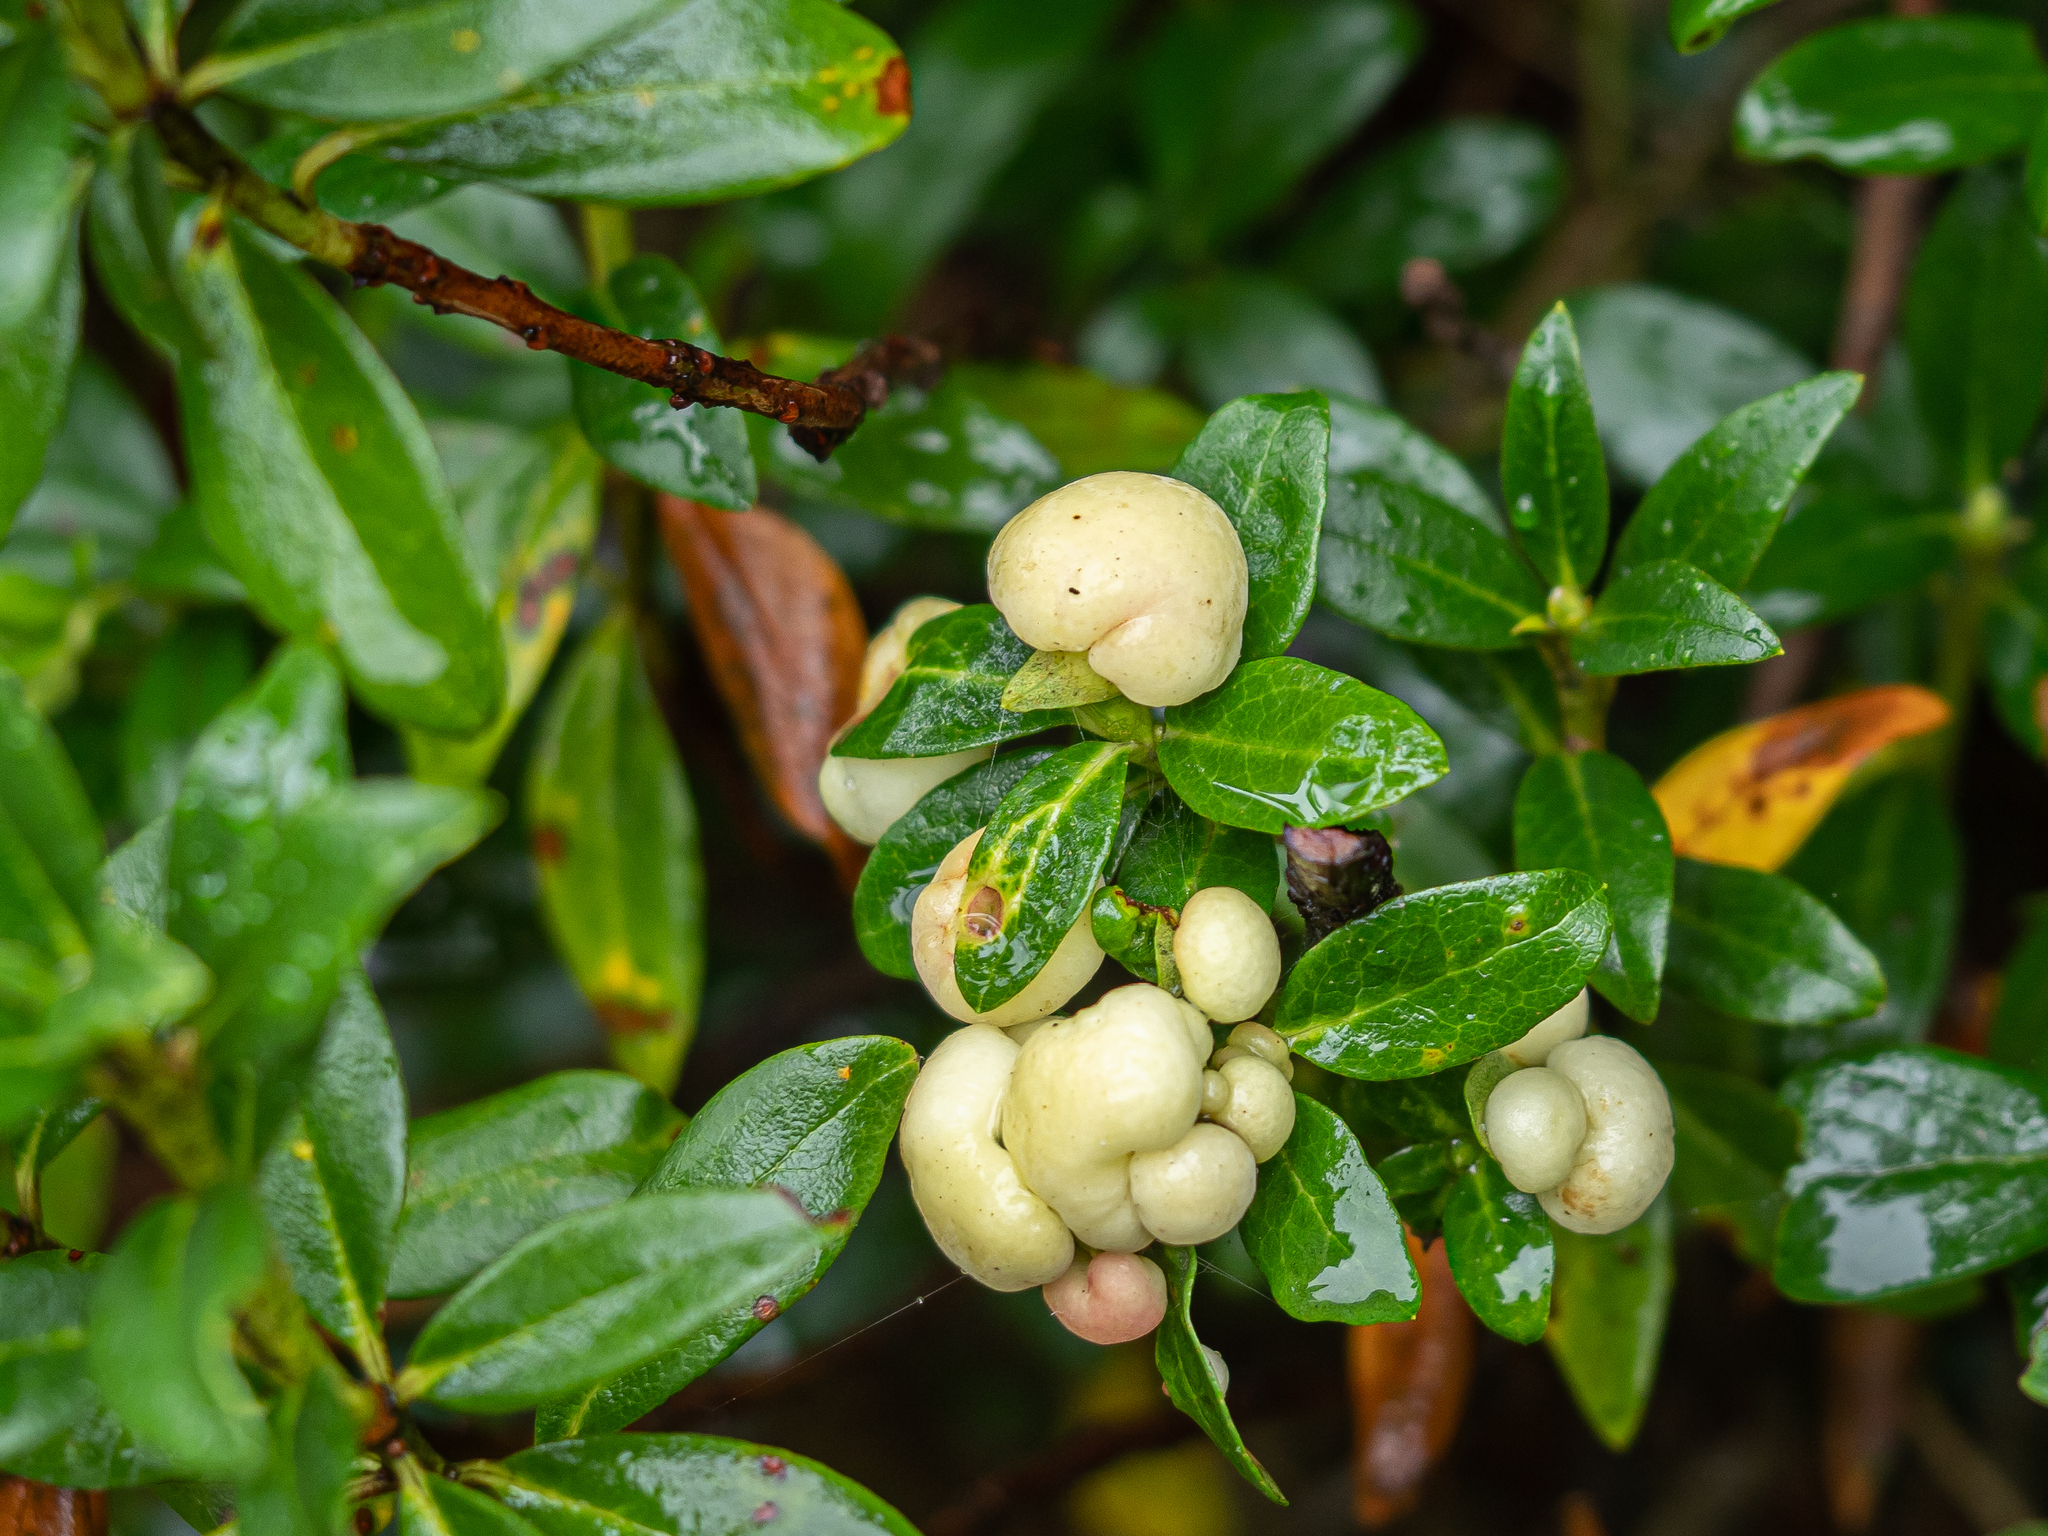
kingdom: Fungi
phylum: Basidiomycota
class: Exobasidiomycetes
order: Exobasidiales
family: Exobasidiaceae
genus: Exobasidium
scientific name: Exobasidium rhododendri
